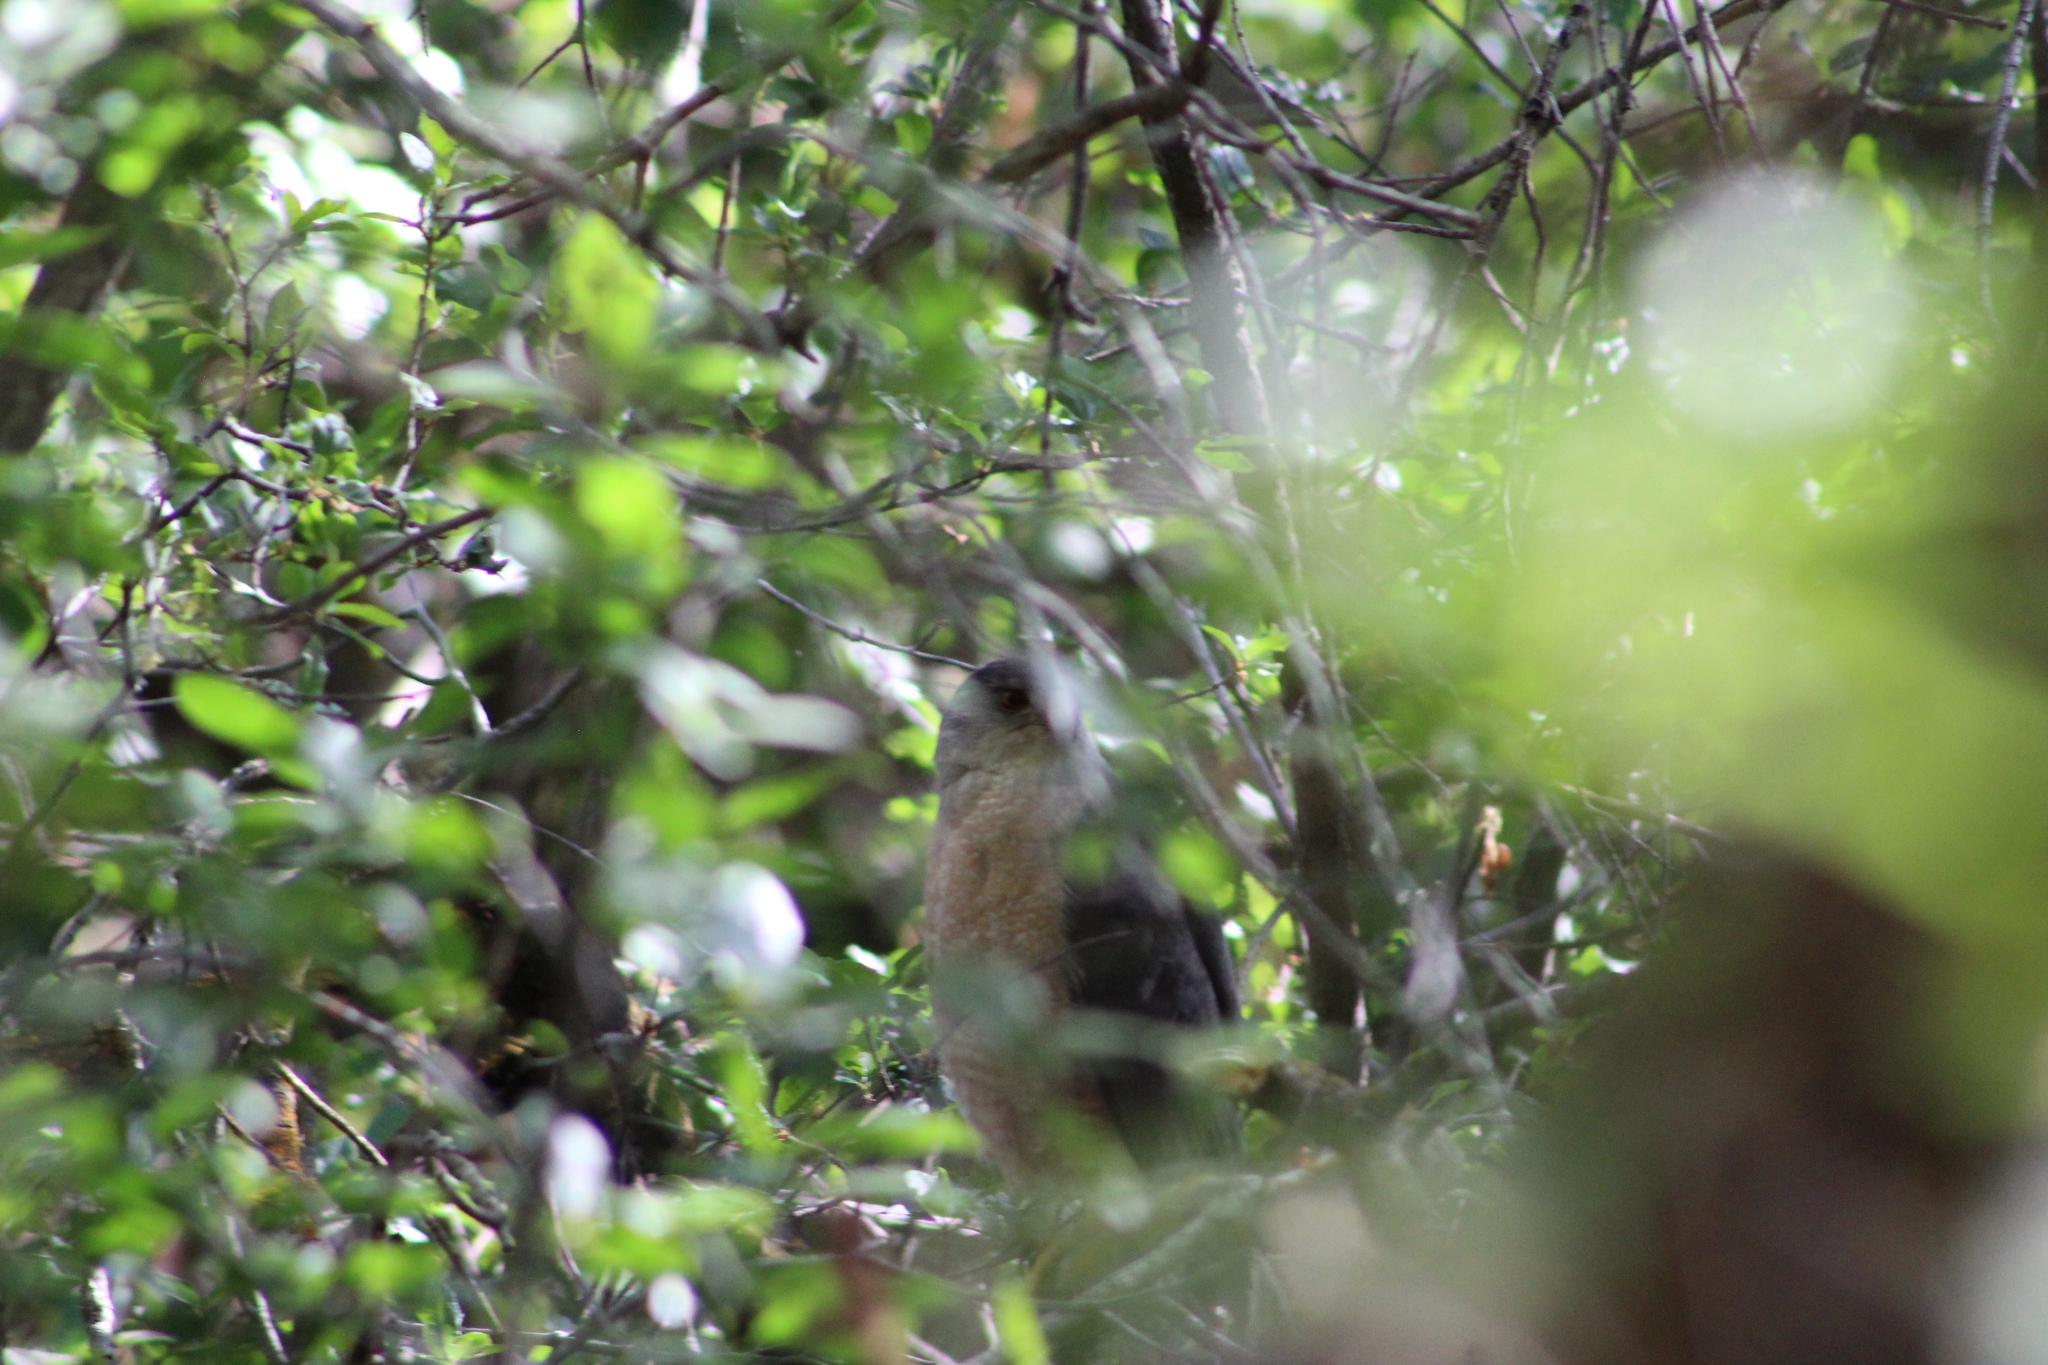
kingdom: Animalia
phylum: Chordata
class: Aves
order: Accipitriformes
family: Accipitridae
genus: Accipiter
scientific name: Accipiter cooperii
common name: Cooper's hawk
